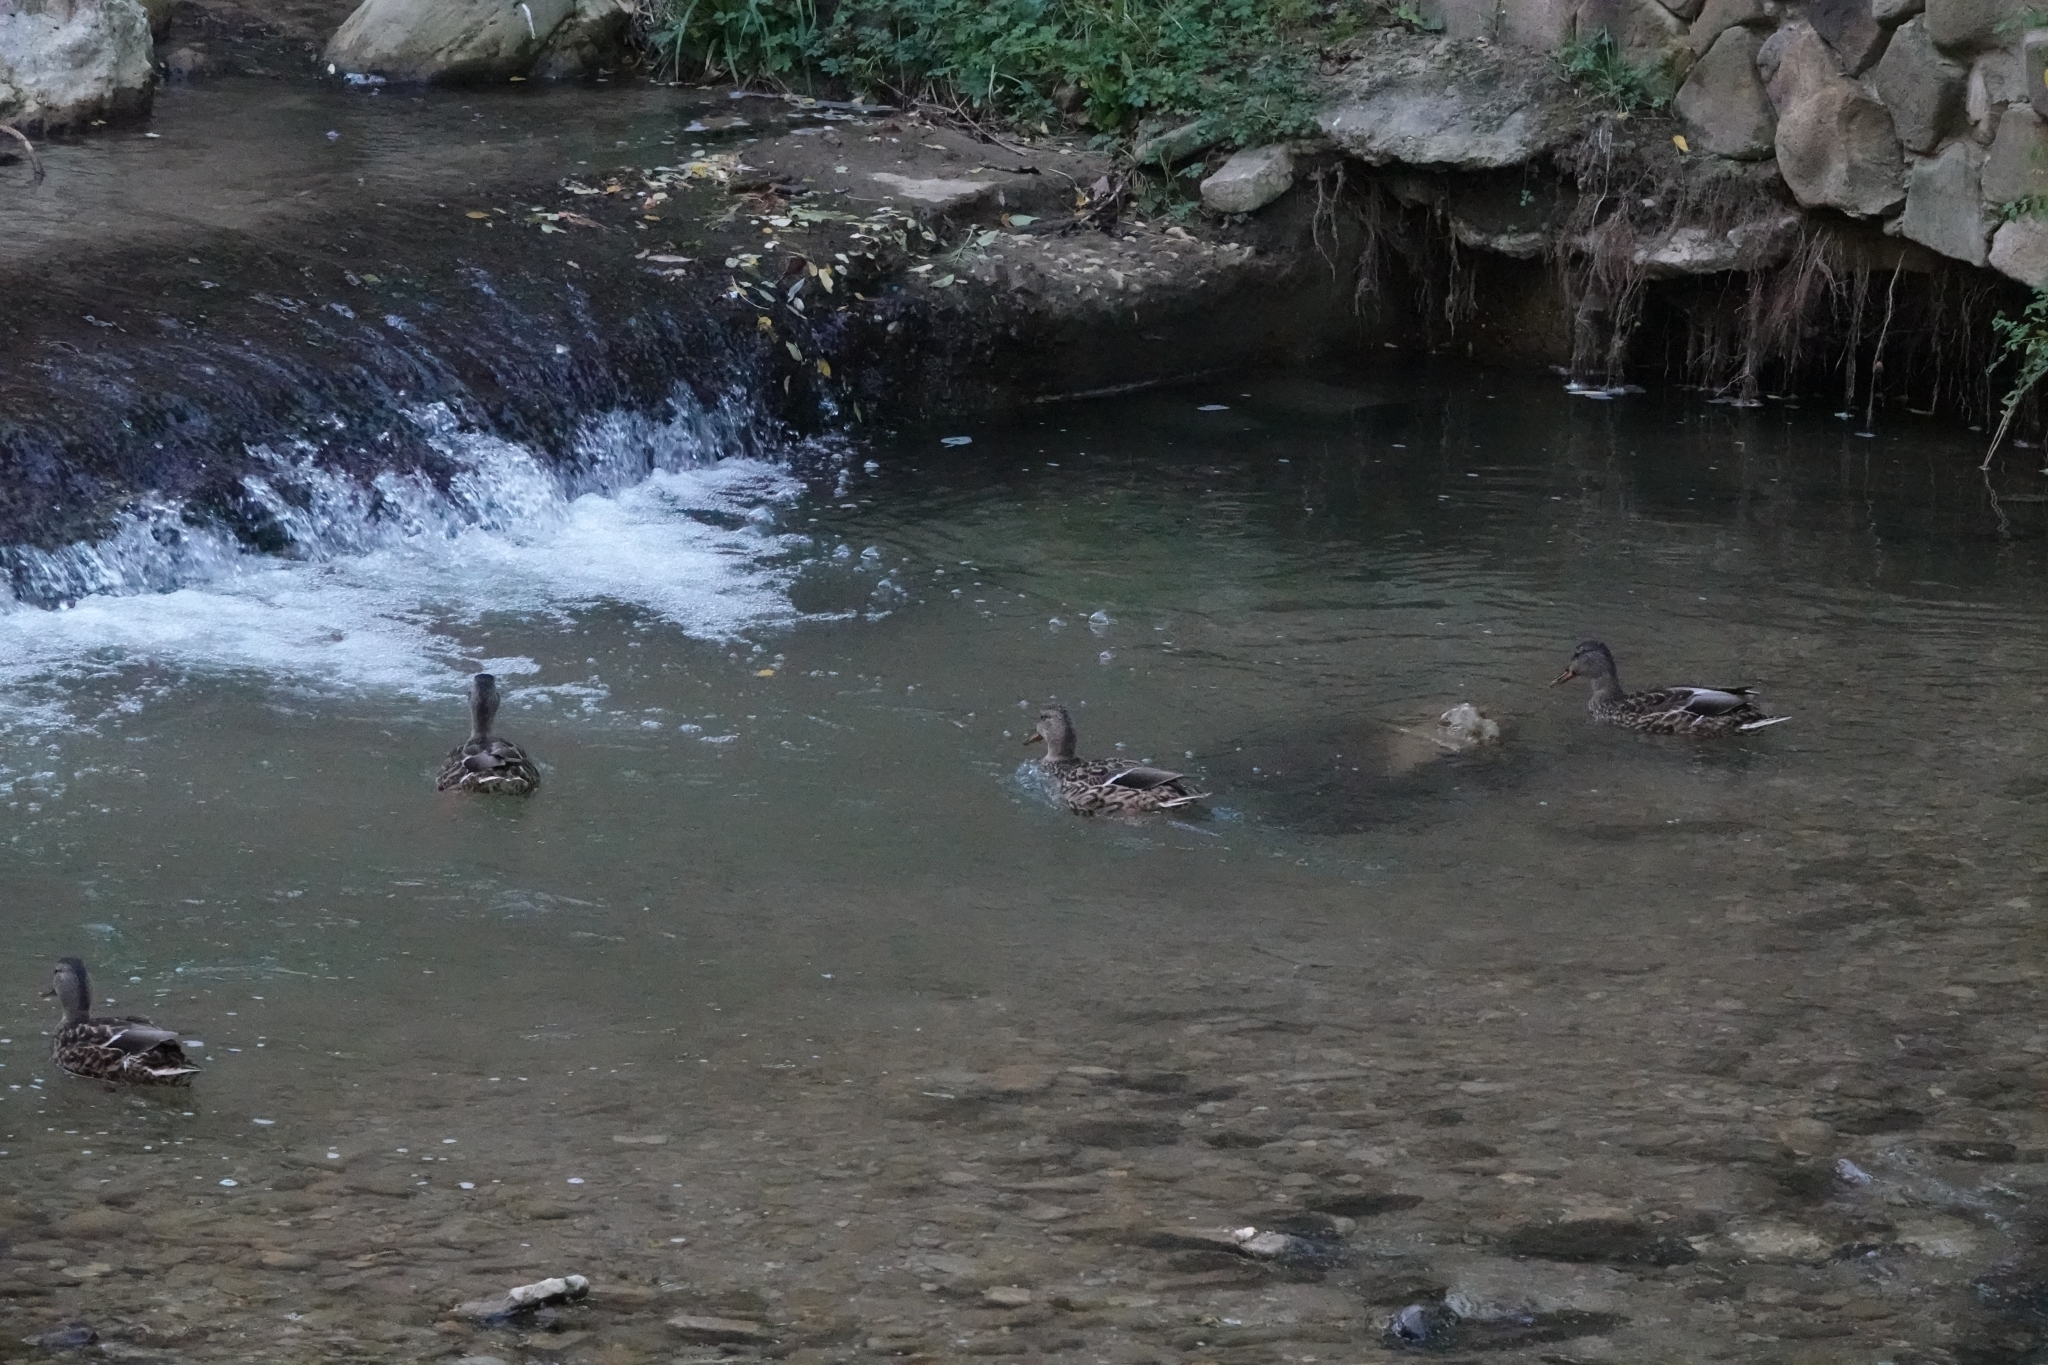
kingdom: Animalia
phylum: Chordata
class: Aves
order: Anseriformes
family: Anatidae
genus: Anas
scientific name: Anas platyrhynchos
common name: Mallard
